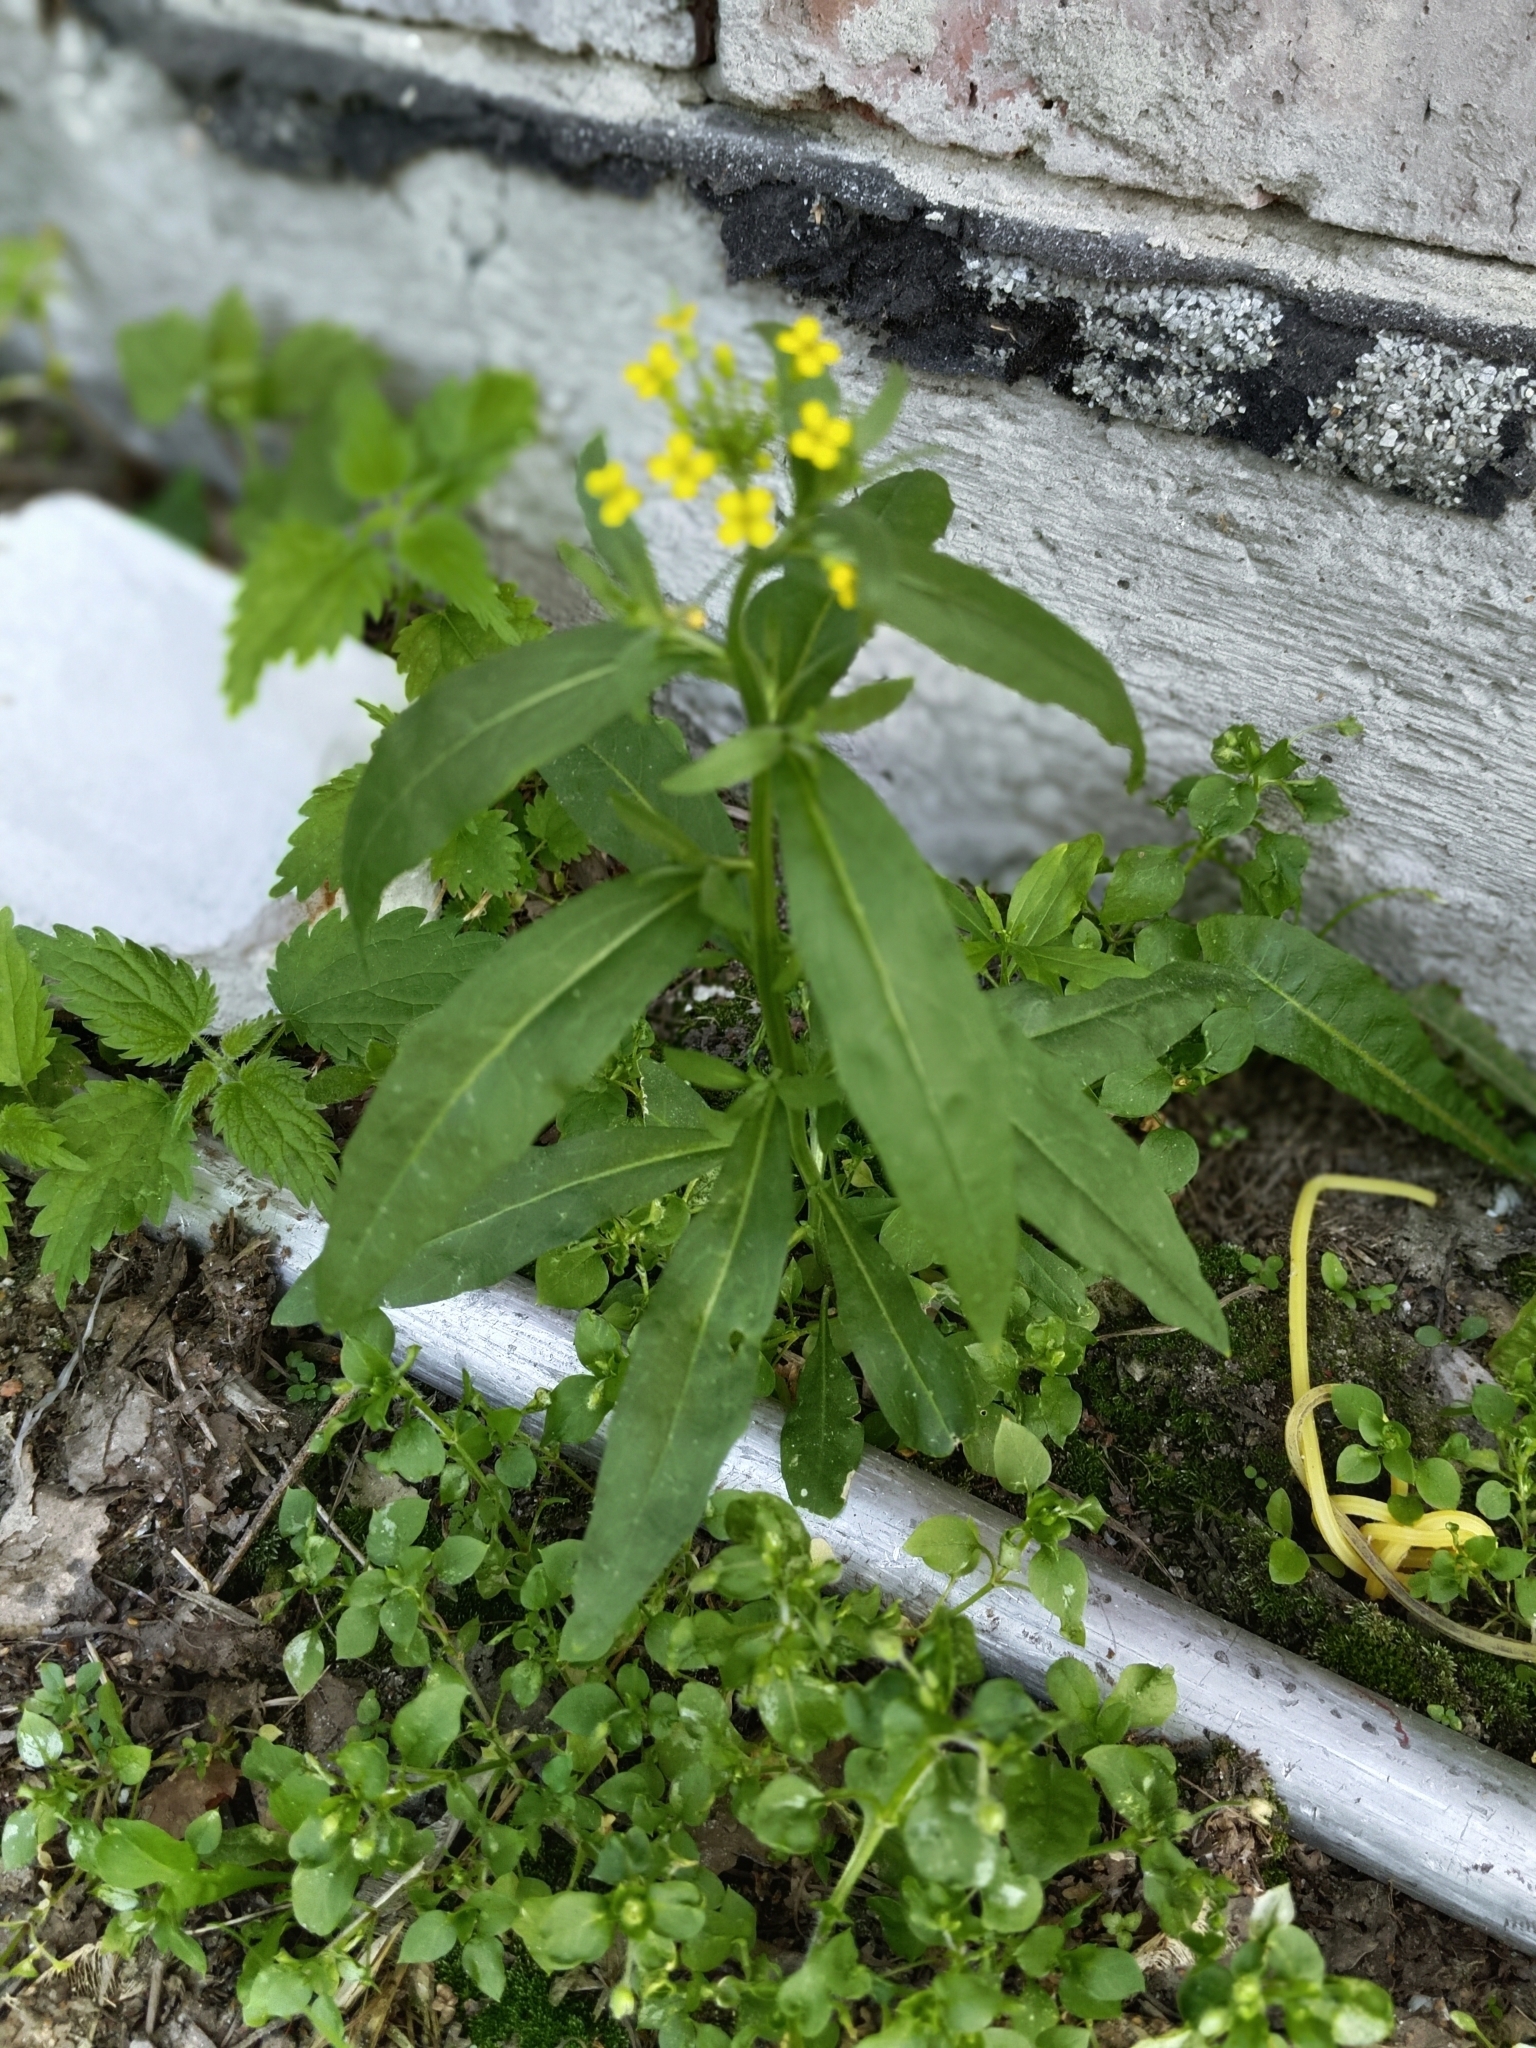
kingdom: Plantae
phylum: Tracheophyta
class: Magnoliopsida
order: Brassicales
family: Brassicaceae
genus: Erysimum
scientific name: Erysimum cheiranthoides
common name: Treacle mustard
